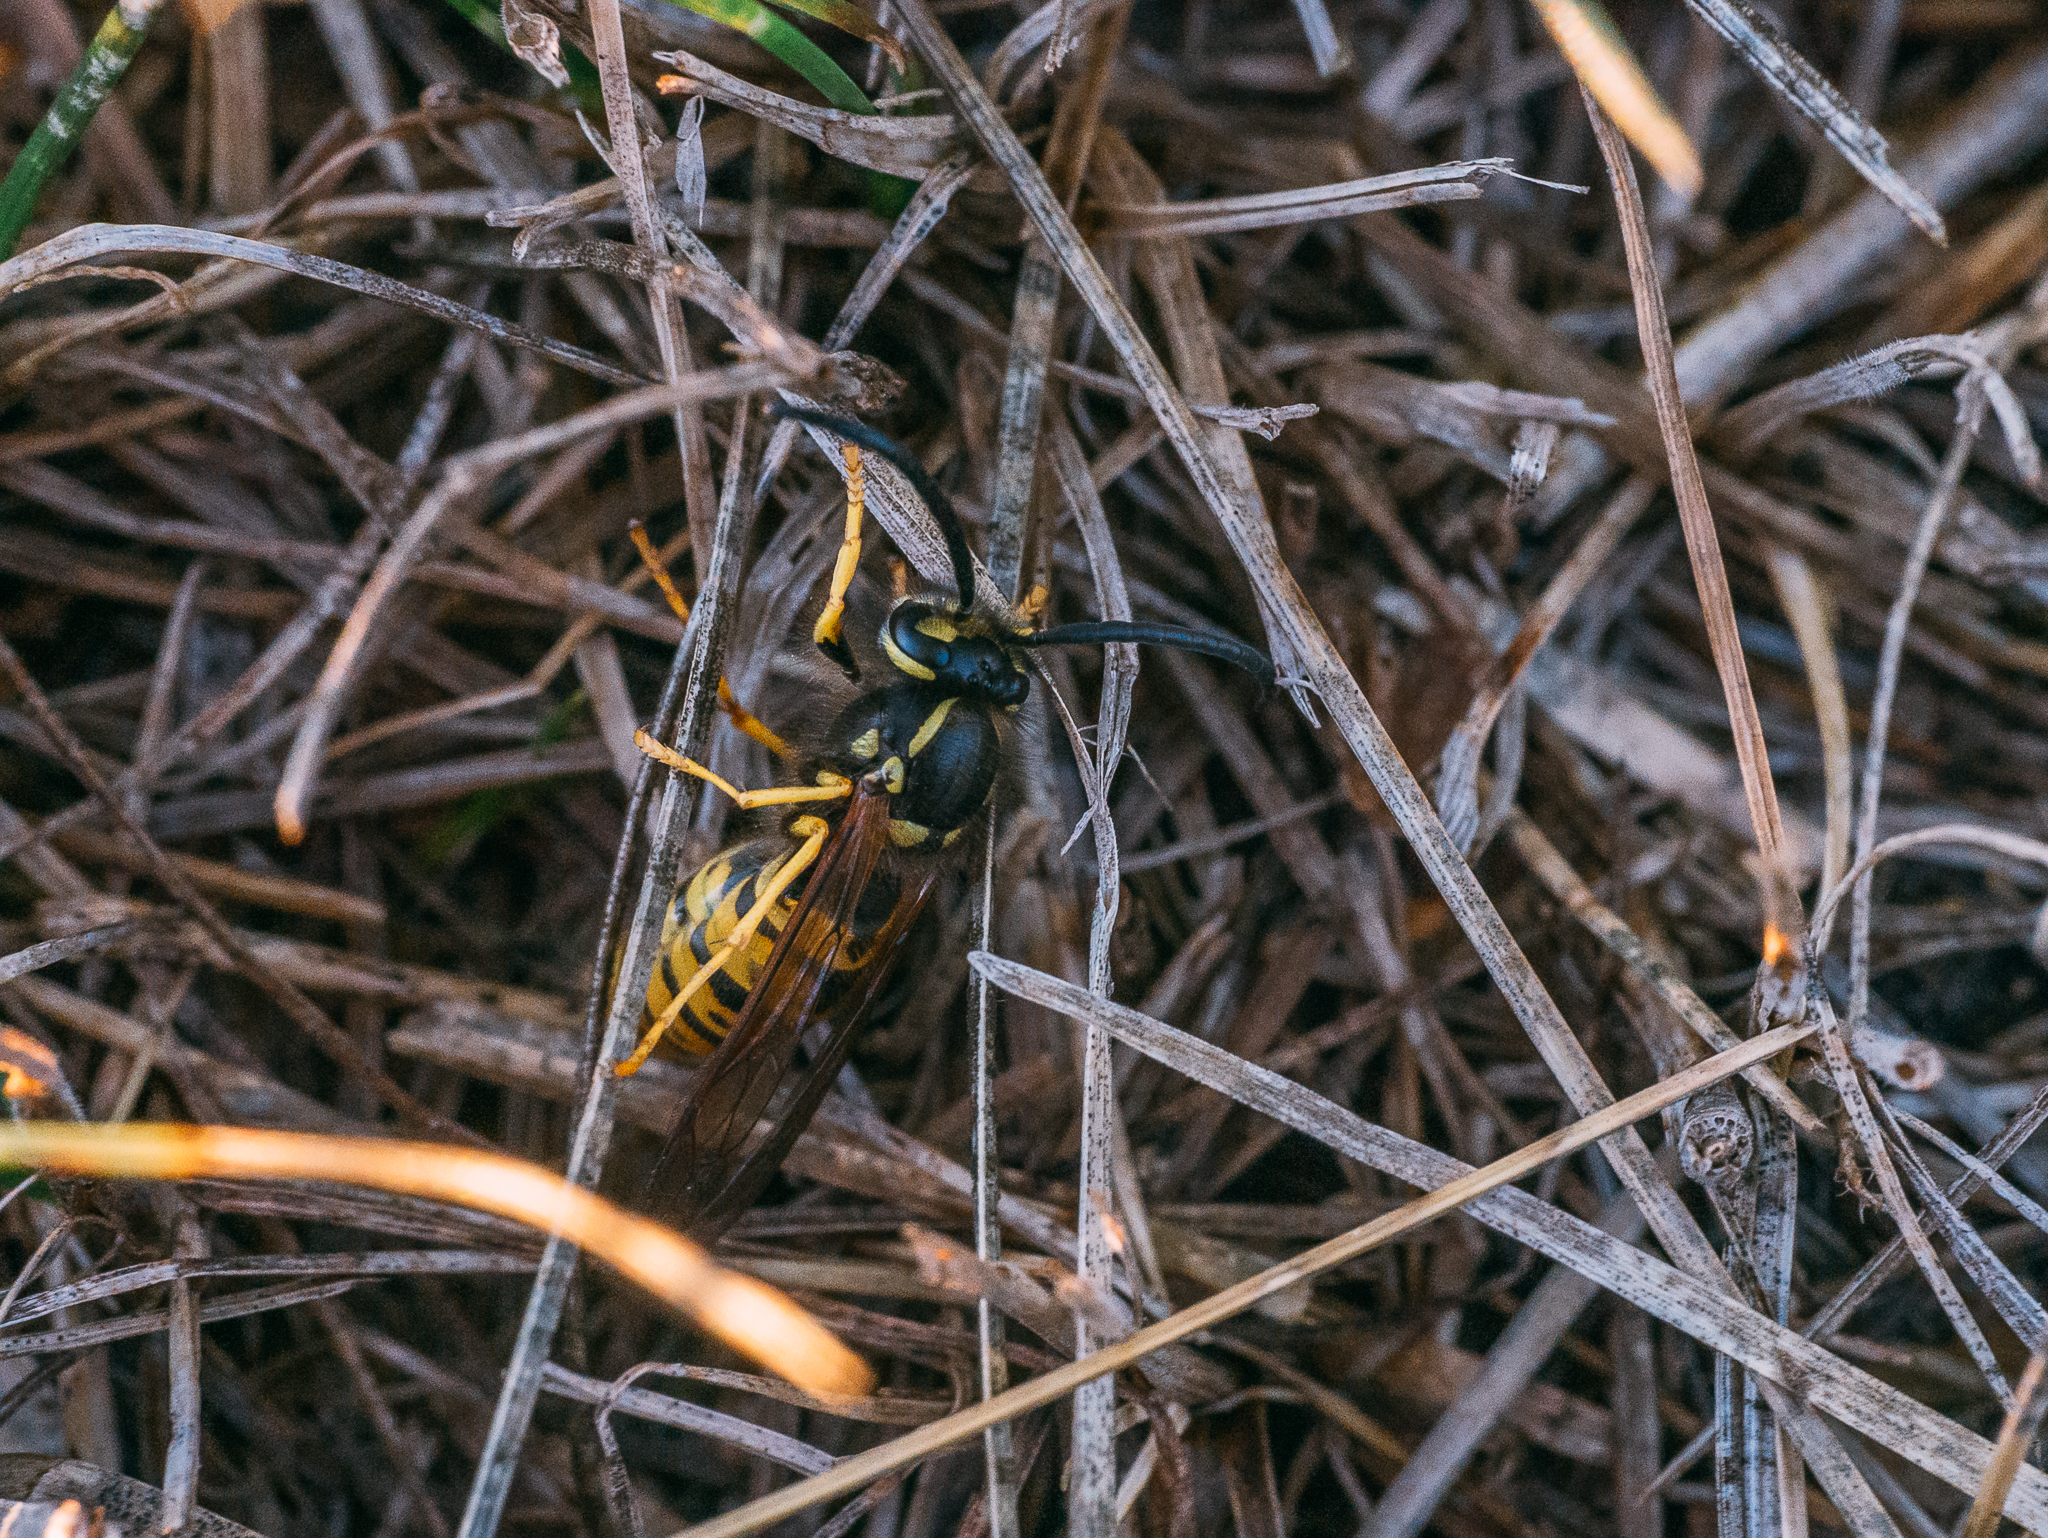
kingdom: Animalia
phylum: Arthropoda
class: Insecta
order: Hymenoptera
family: Vespidae
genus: Vespula
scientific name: Vespula germanica
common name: German wasp
